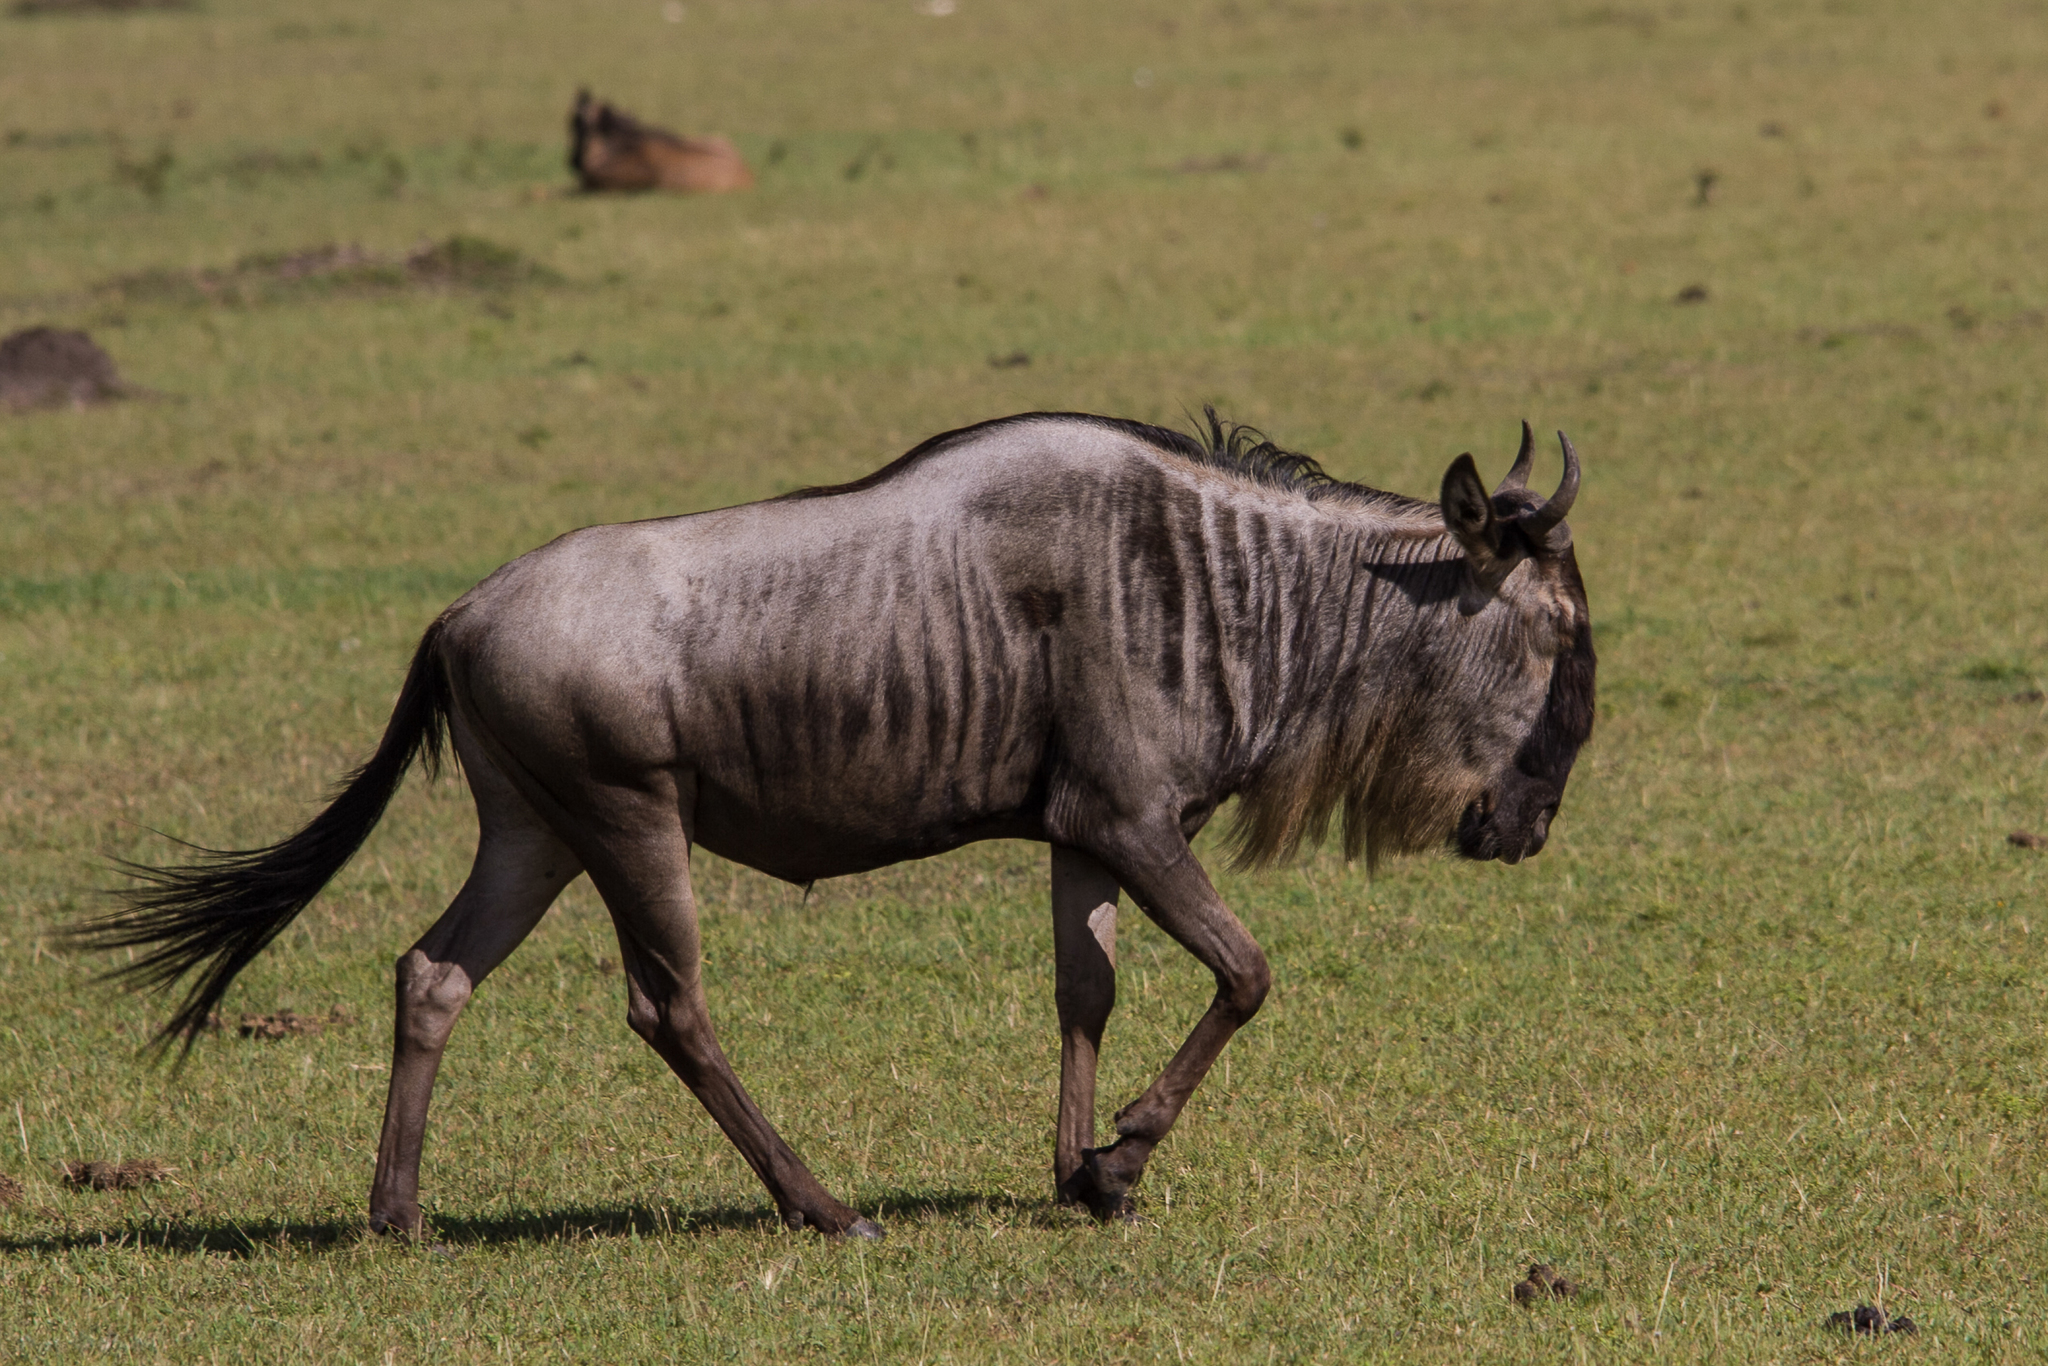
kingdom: Animalia
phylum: Chordata
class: Mammalia
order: Artiodactyla
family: Bovidae
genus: Connochaetes
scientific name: Connochaetes taurinus
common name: Blue wildebeest
